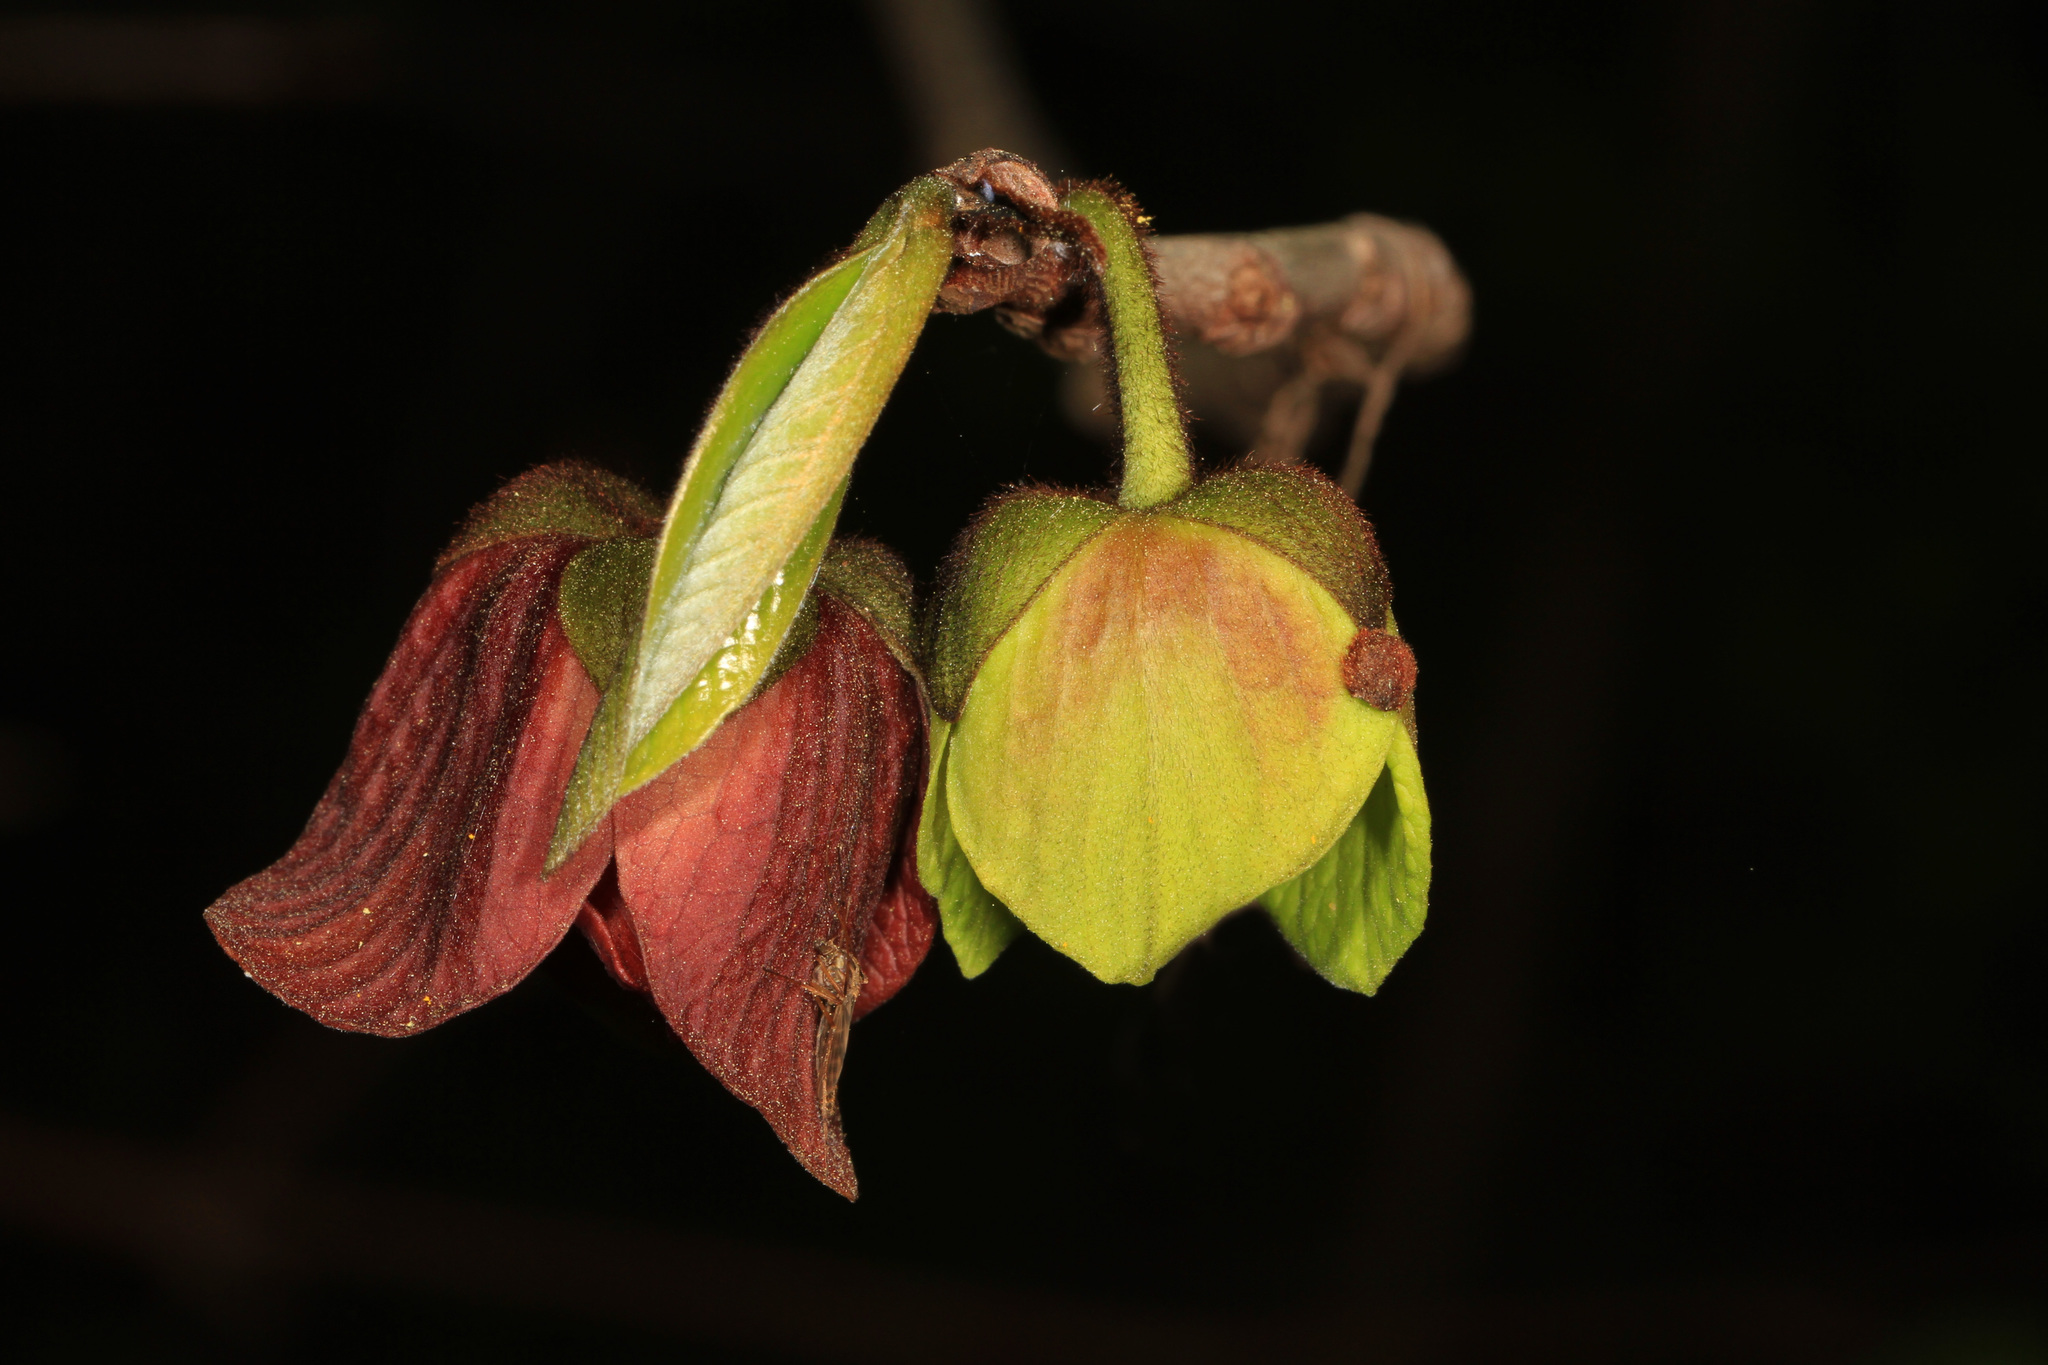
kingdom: Plantae
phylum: Tracheophyta
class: Magnoliopsida
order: Magnoliales
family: Annonaceae
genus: Asimina
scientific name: Asimina triloba
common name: Dog-banana
